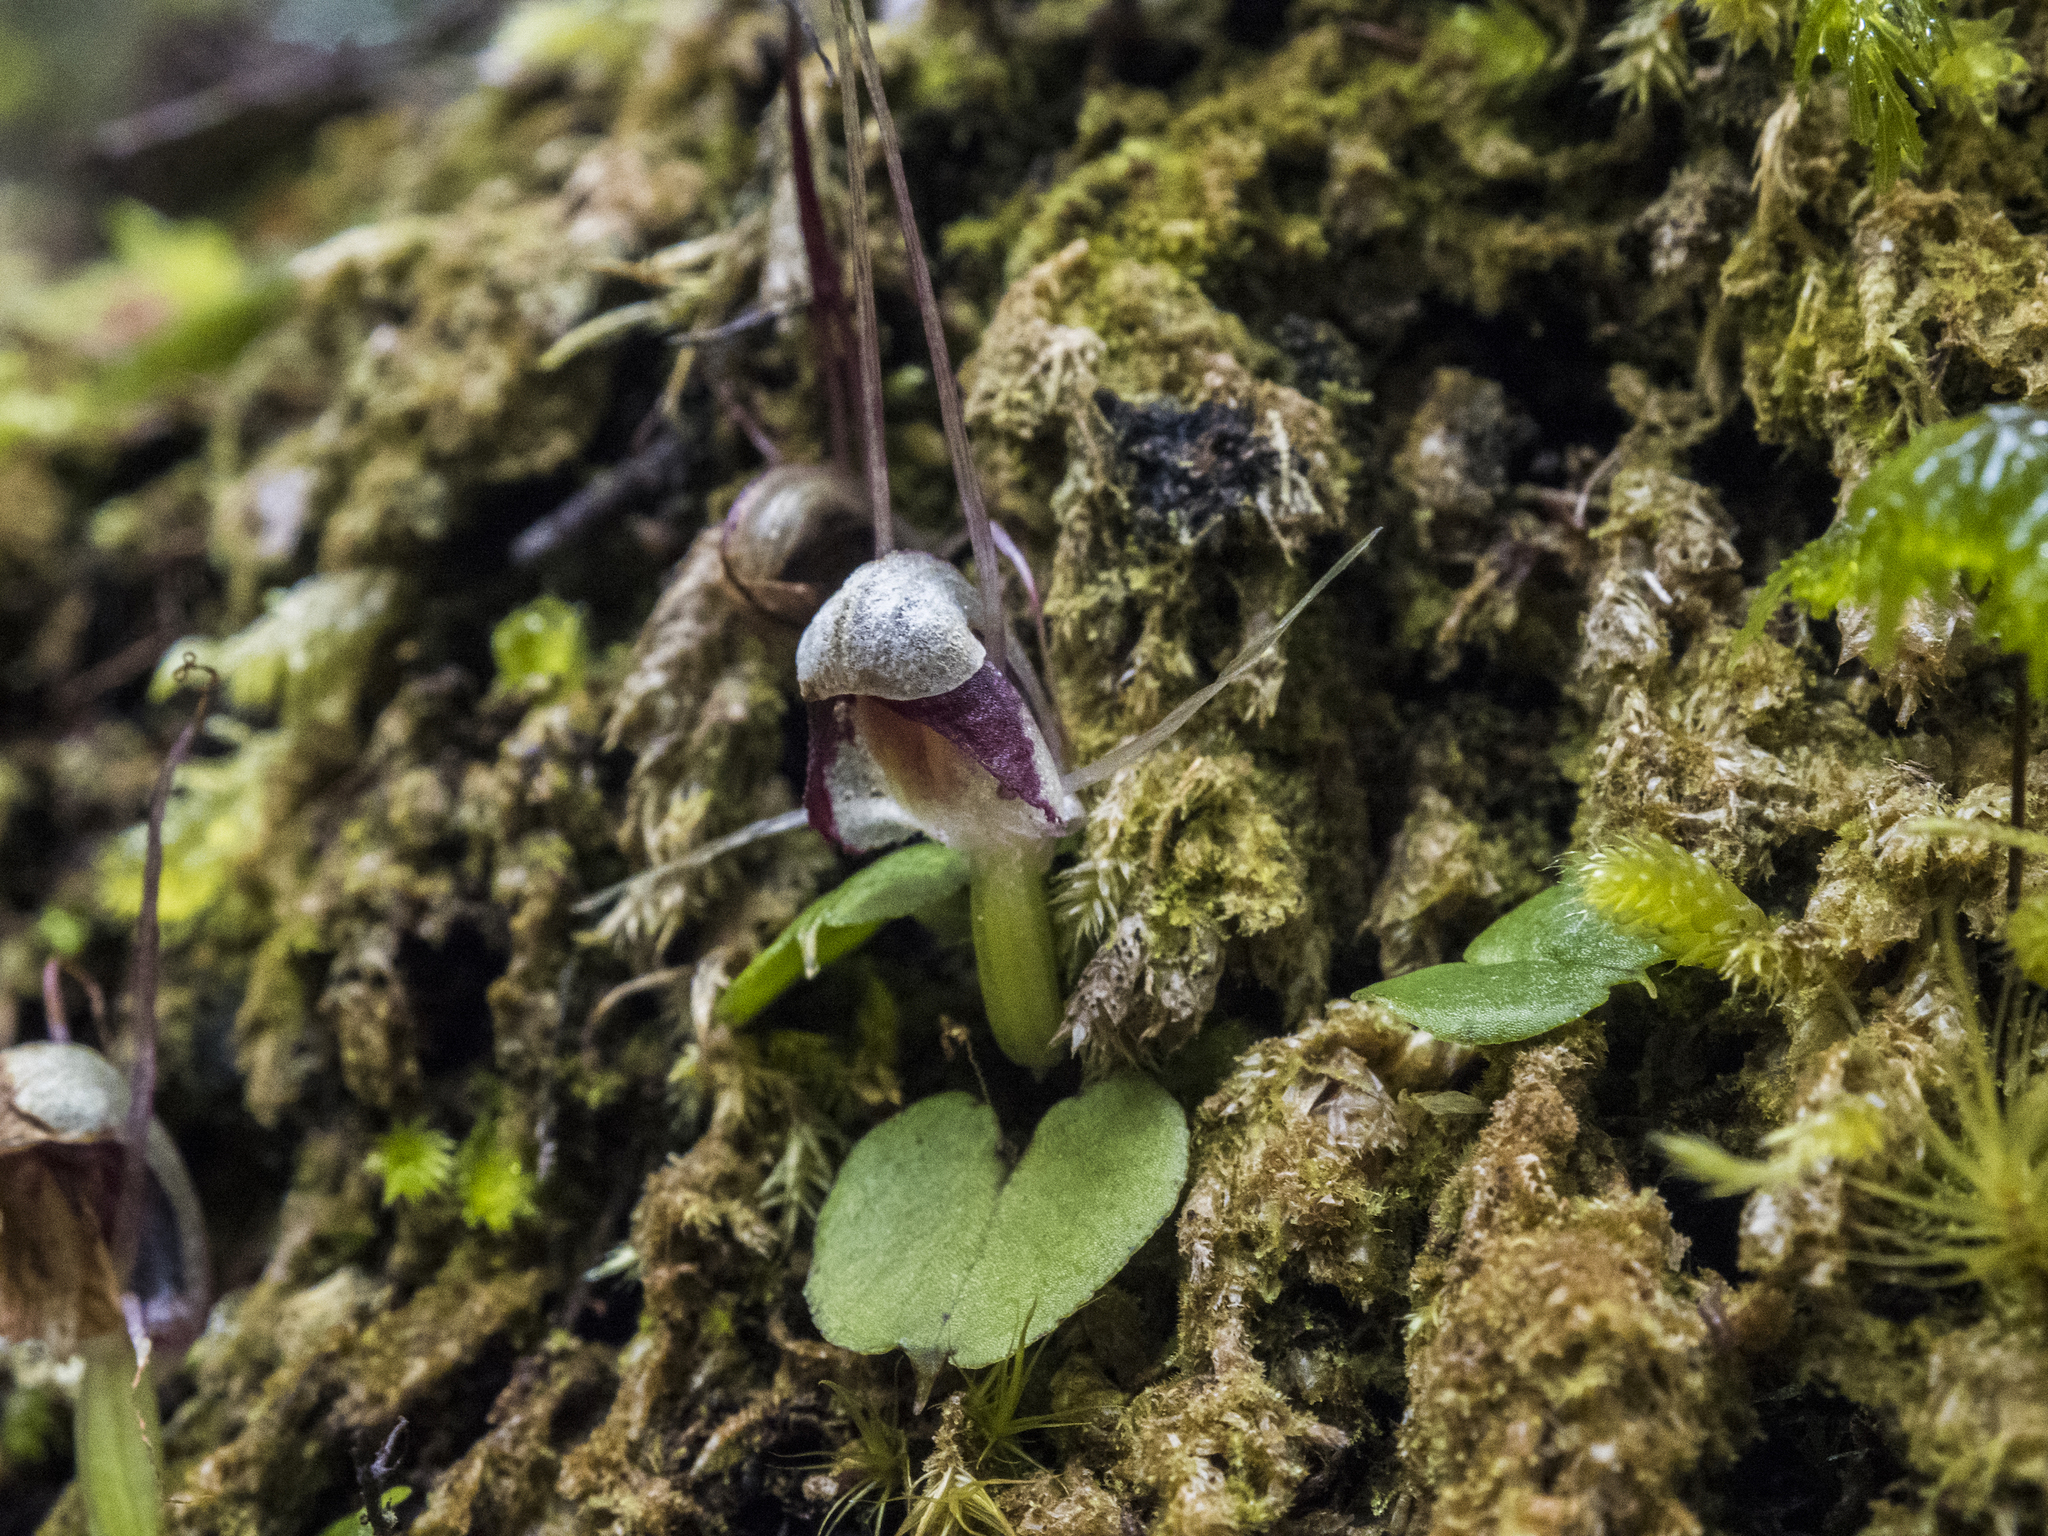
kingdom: Plantae
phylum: Tracheophyta
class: Liliopsida
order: Asparagales
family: Orchidaceae
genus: Corybas
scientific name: Corybas vitreus
